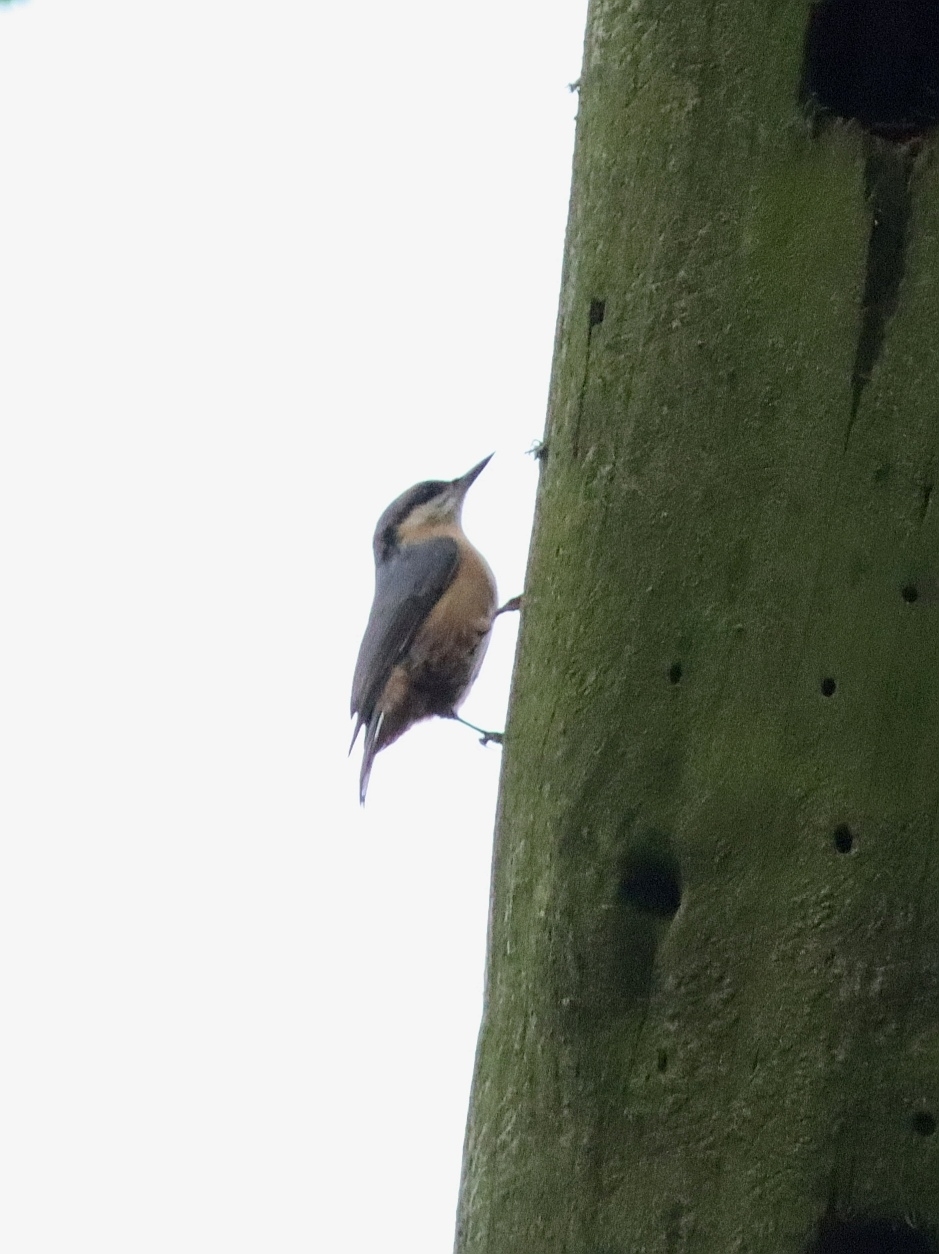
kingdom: Animalia
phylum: Chordata
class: Aves
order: Passeriformes
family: Sittidae
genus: Sitta
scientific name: Sitta europaea
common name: Eurasian nuthatch
